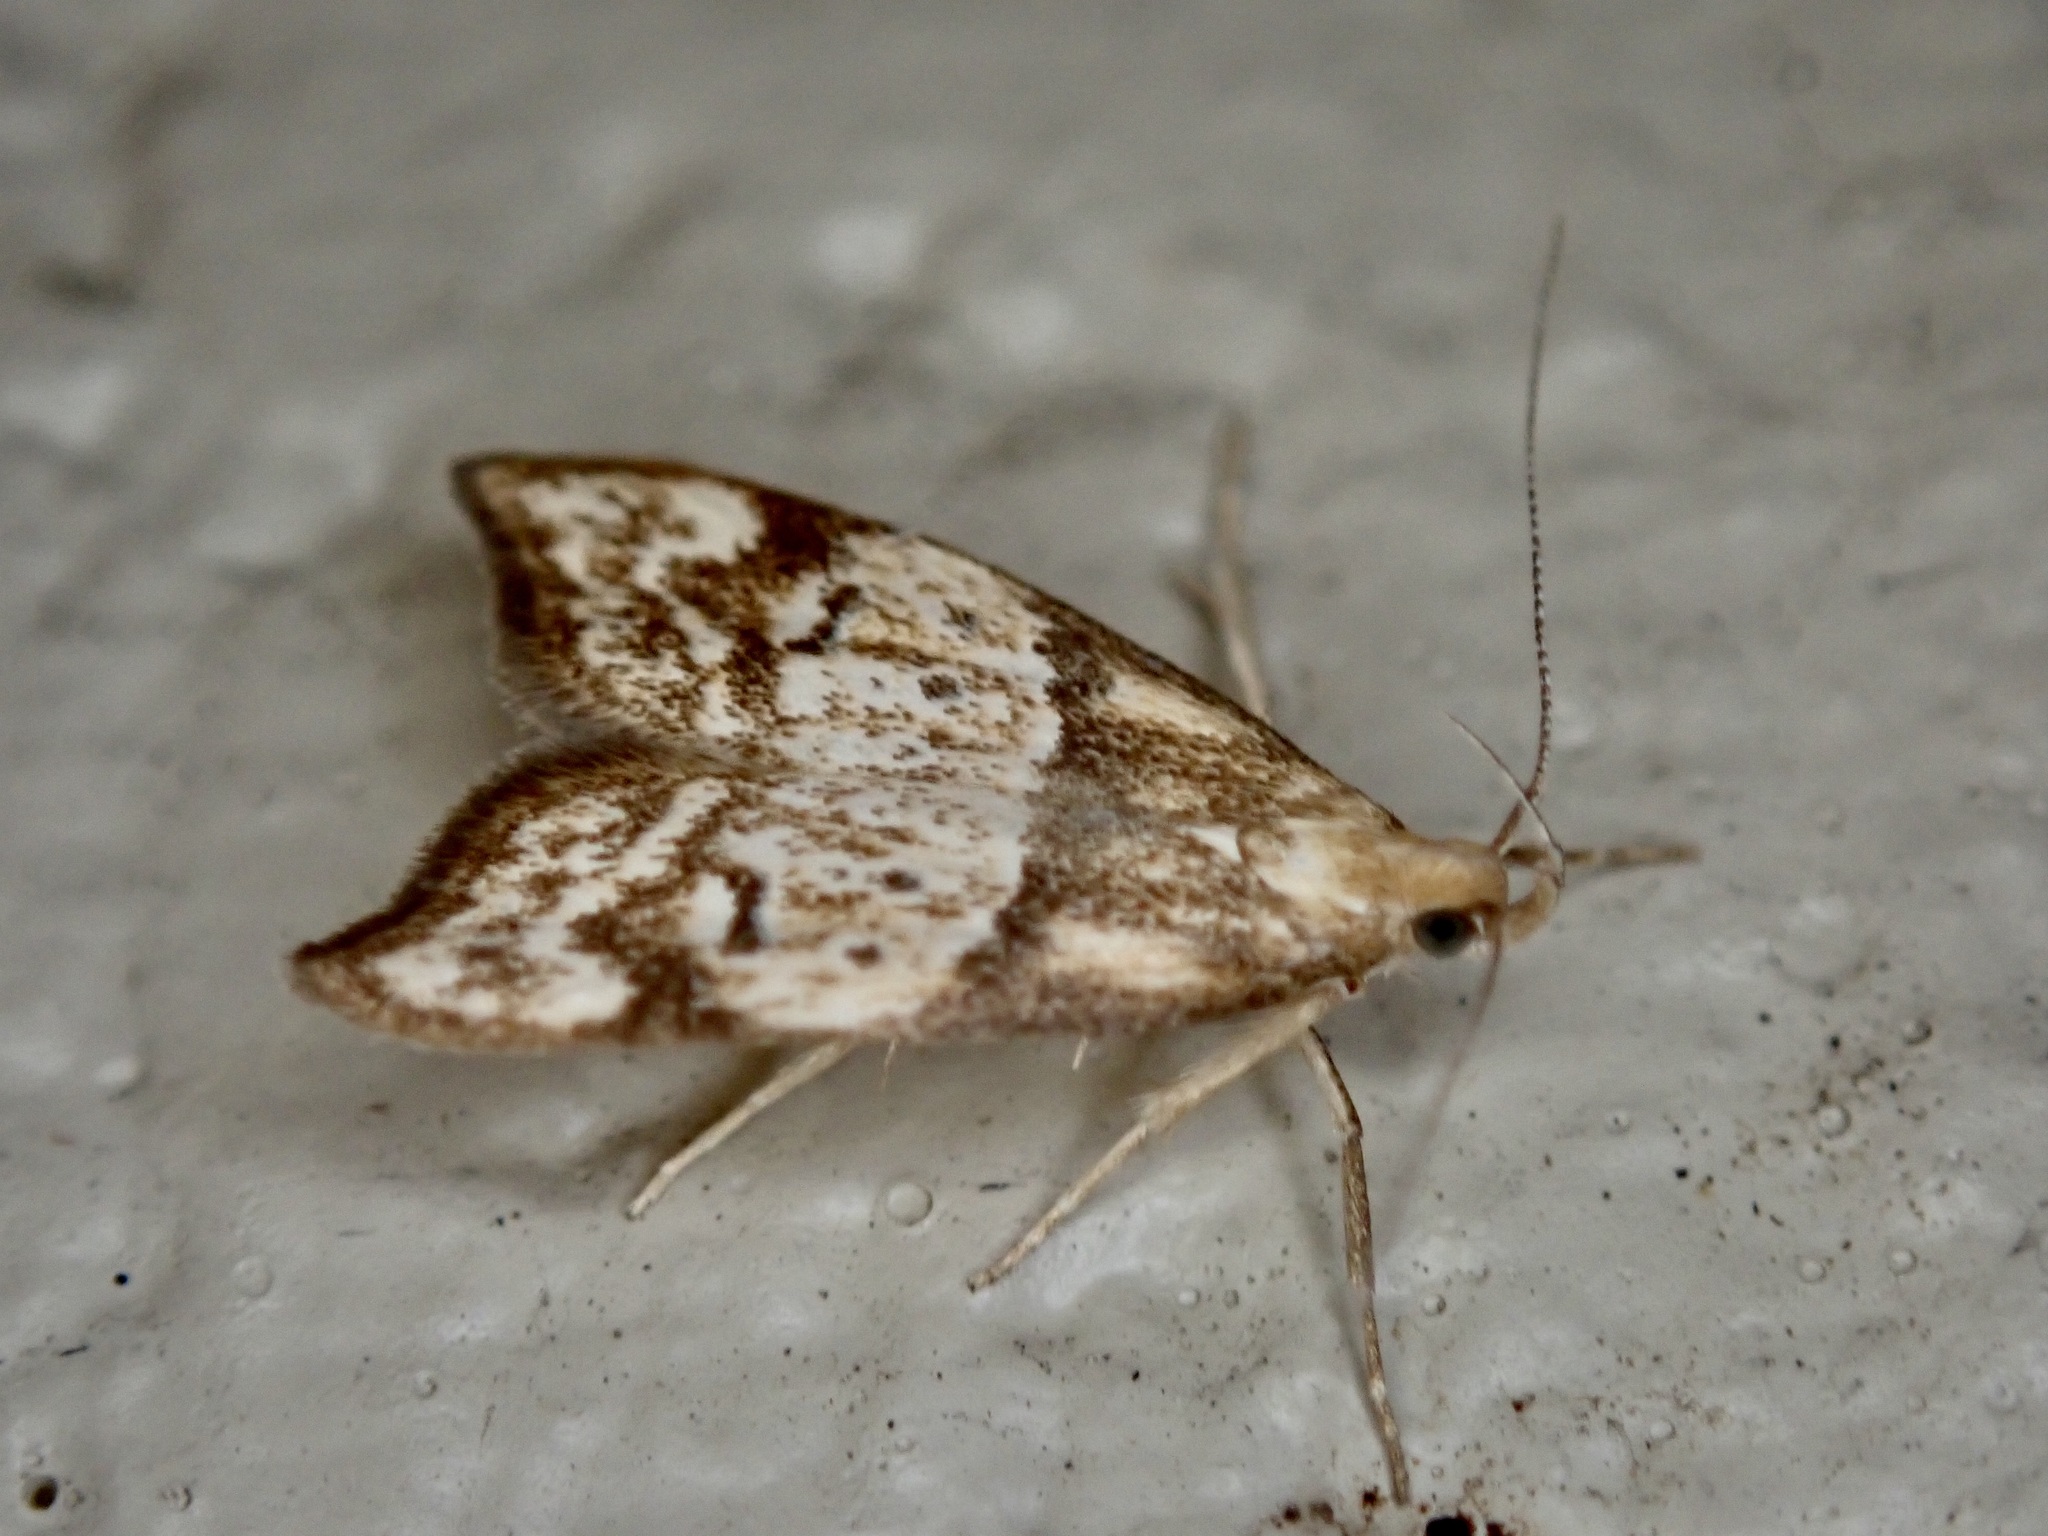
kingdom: Animalia
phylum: Arthropoda
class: Insecta
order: Lepidoptera
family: Oecophoridae
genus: Gymnobathra
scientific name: Gymnobathra hamatella
